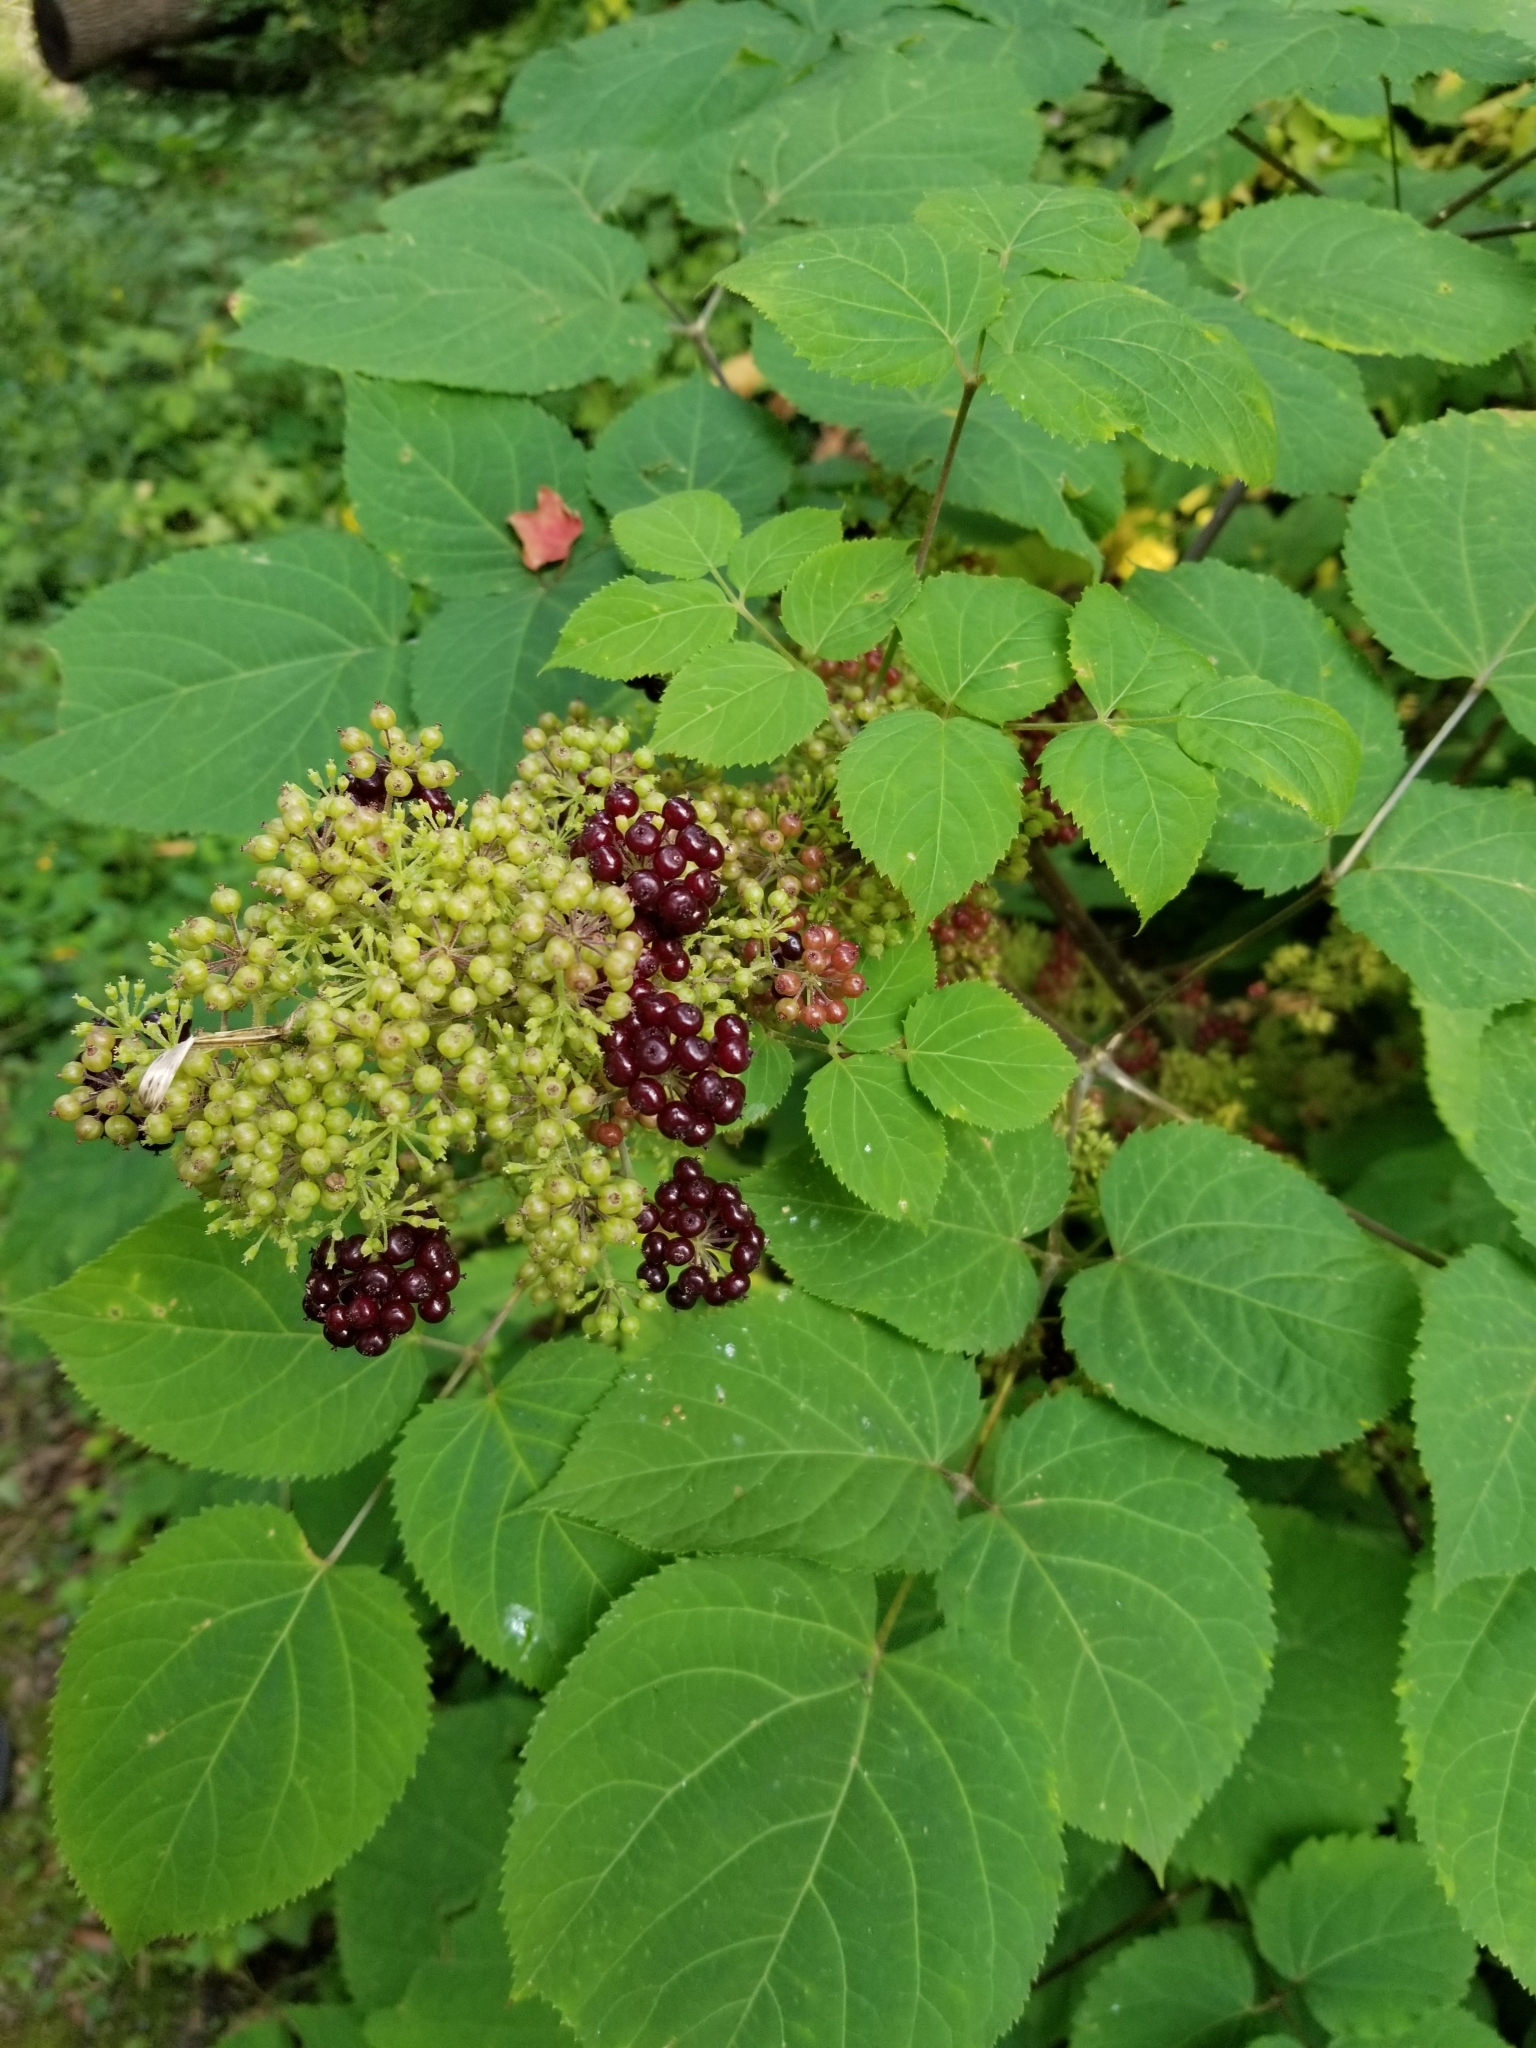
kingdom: Plantae
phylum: Tracheophyta
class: Magnoliopsida
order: Apiales
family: Araliaceae
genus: Aralia
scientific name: Aralia racemosa
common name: American-spikenard
